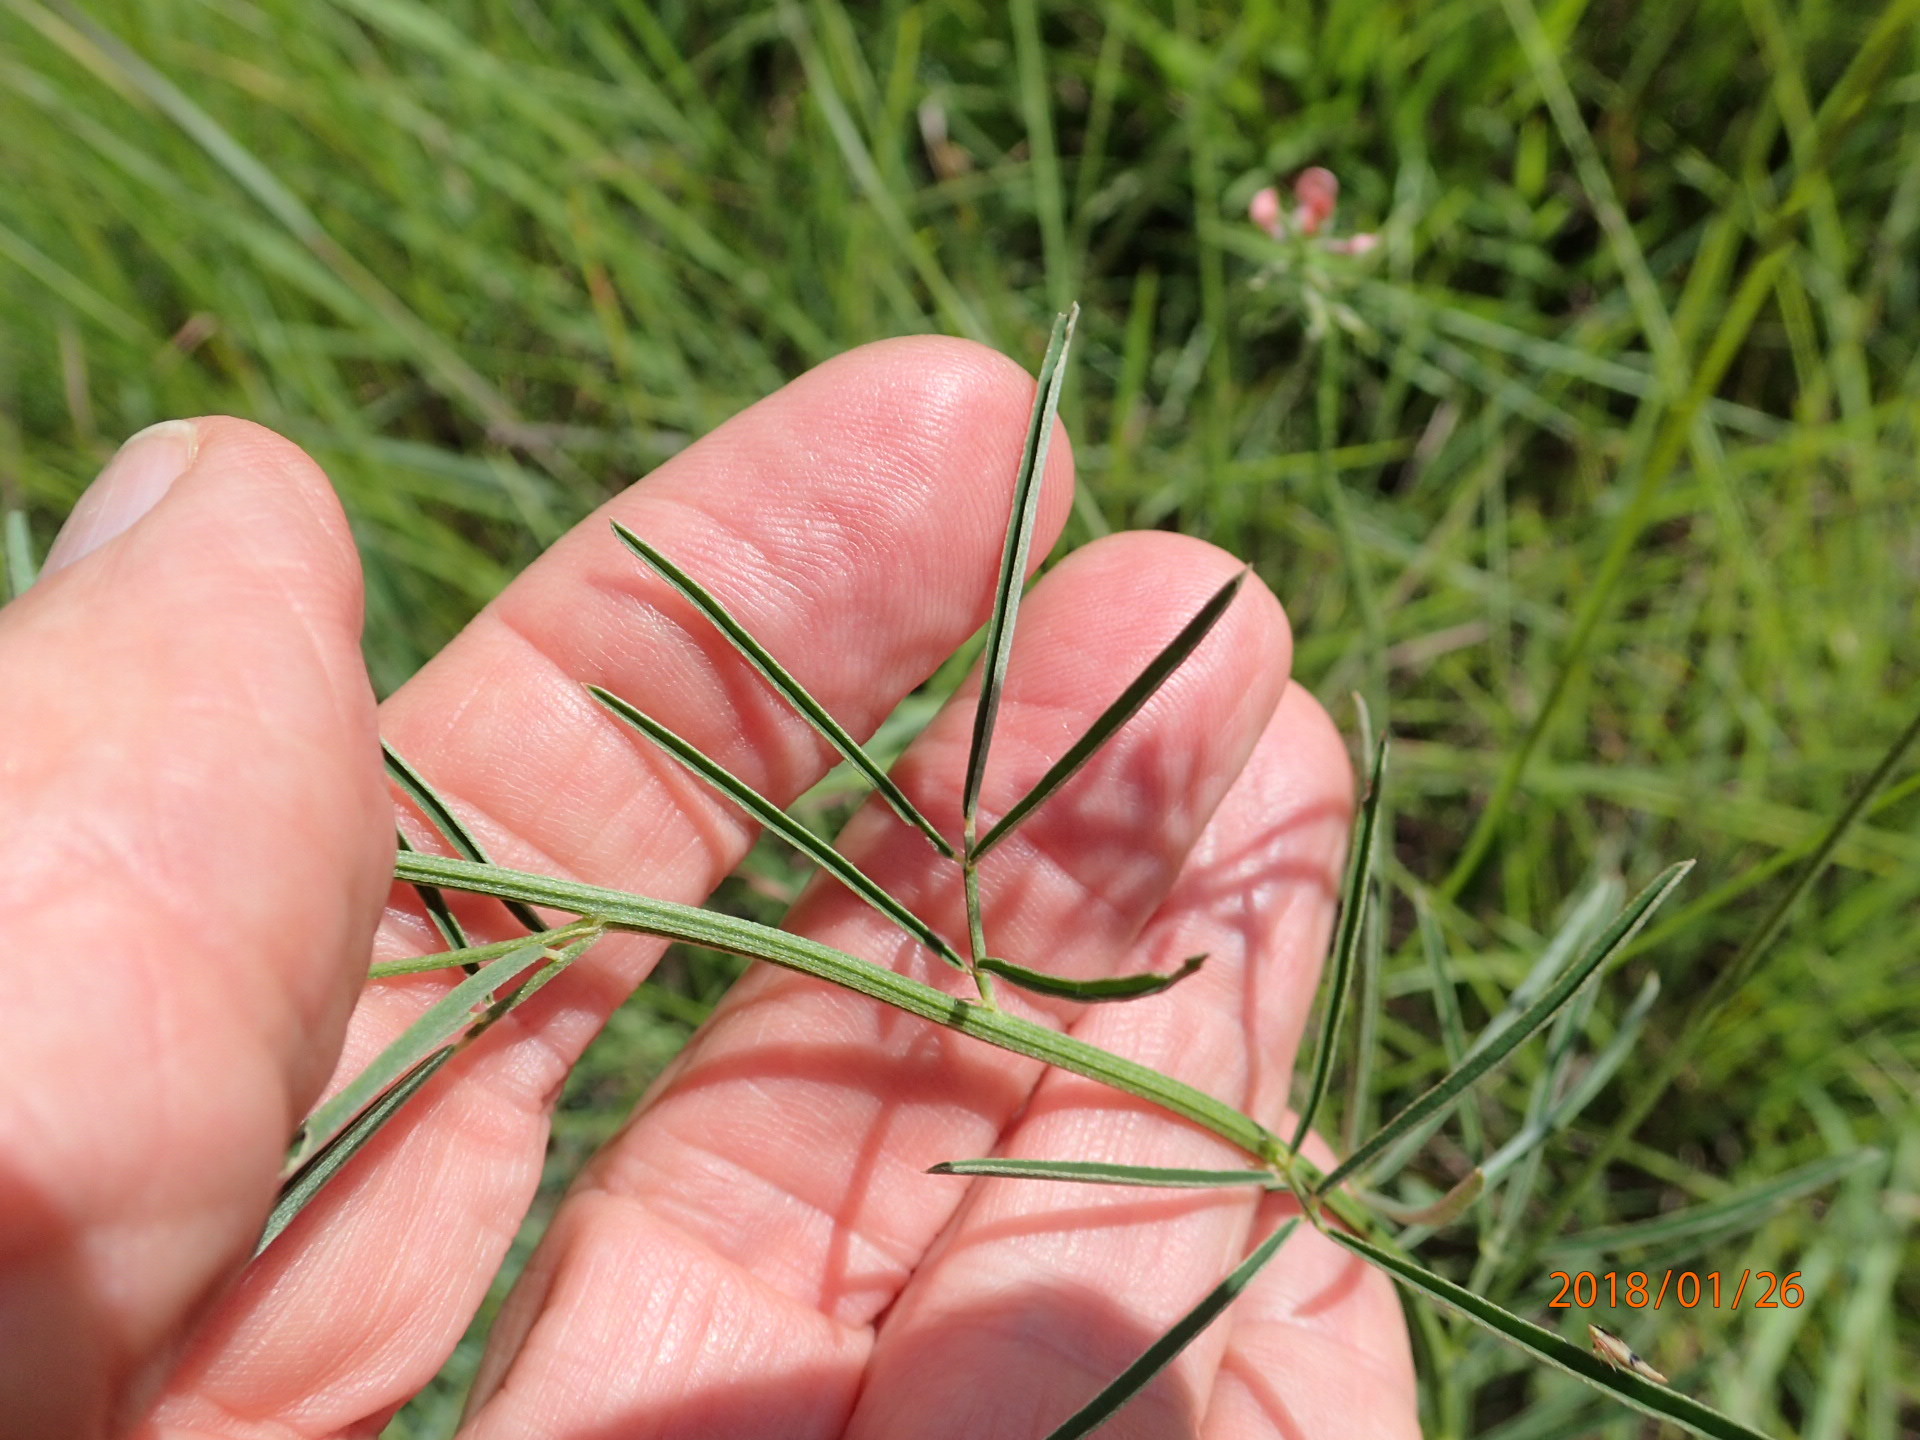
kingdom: Plantae
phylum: Tracheophyta
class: Magnoliopsida
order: Fabales
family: Fabaceae
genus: Indigastrum
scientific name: Indigastrum fastigiatum
